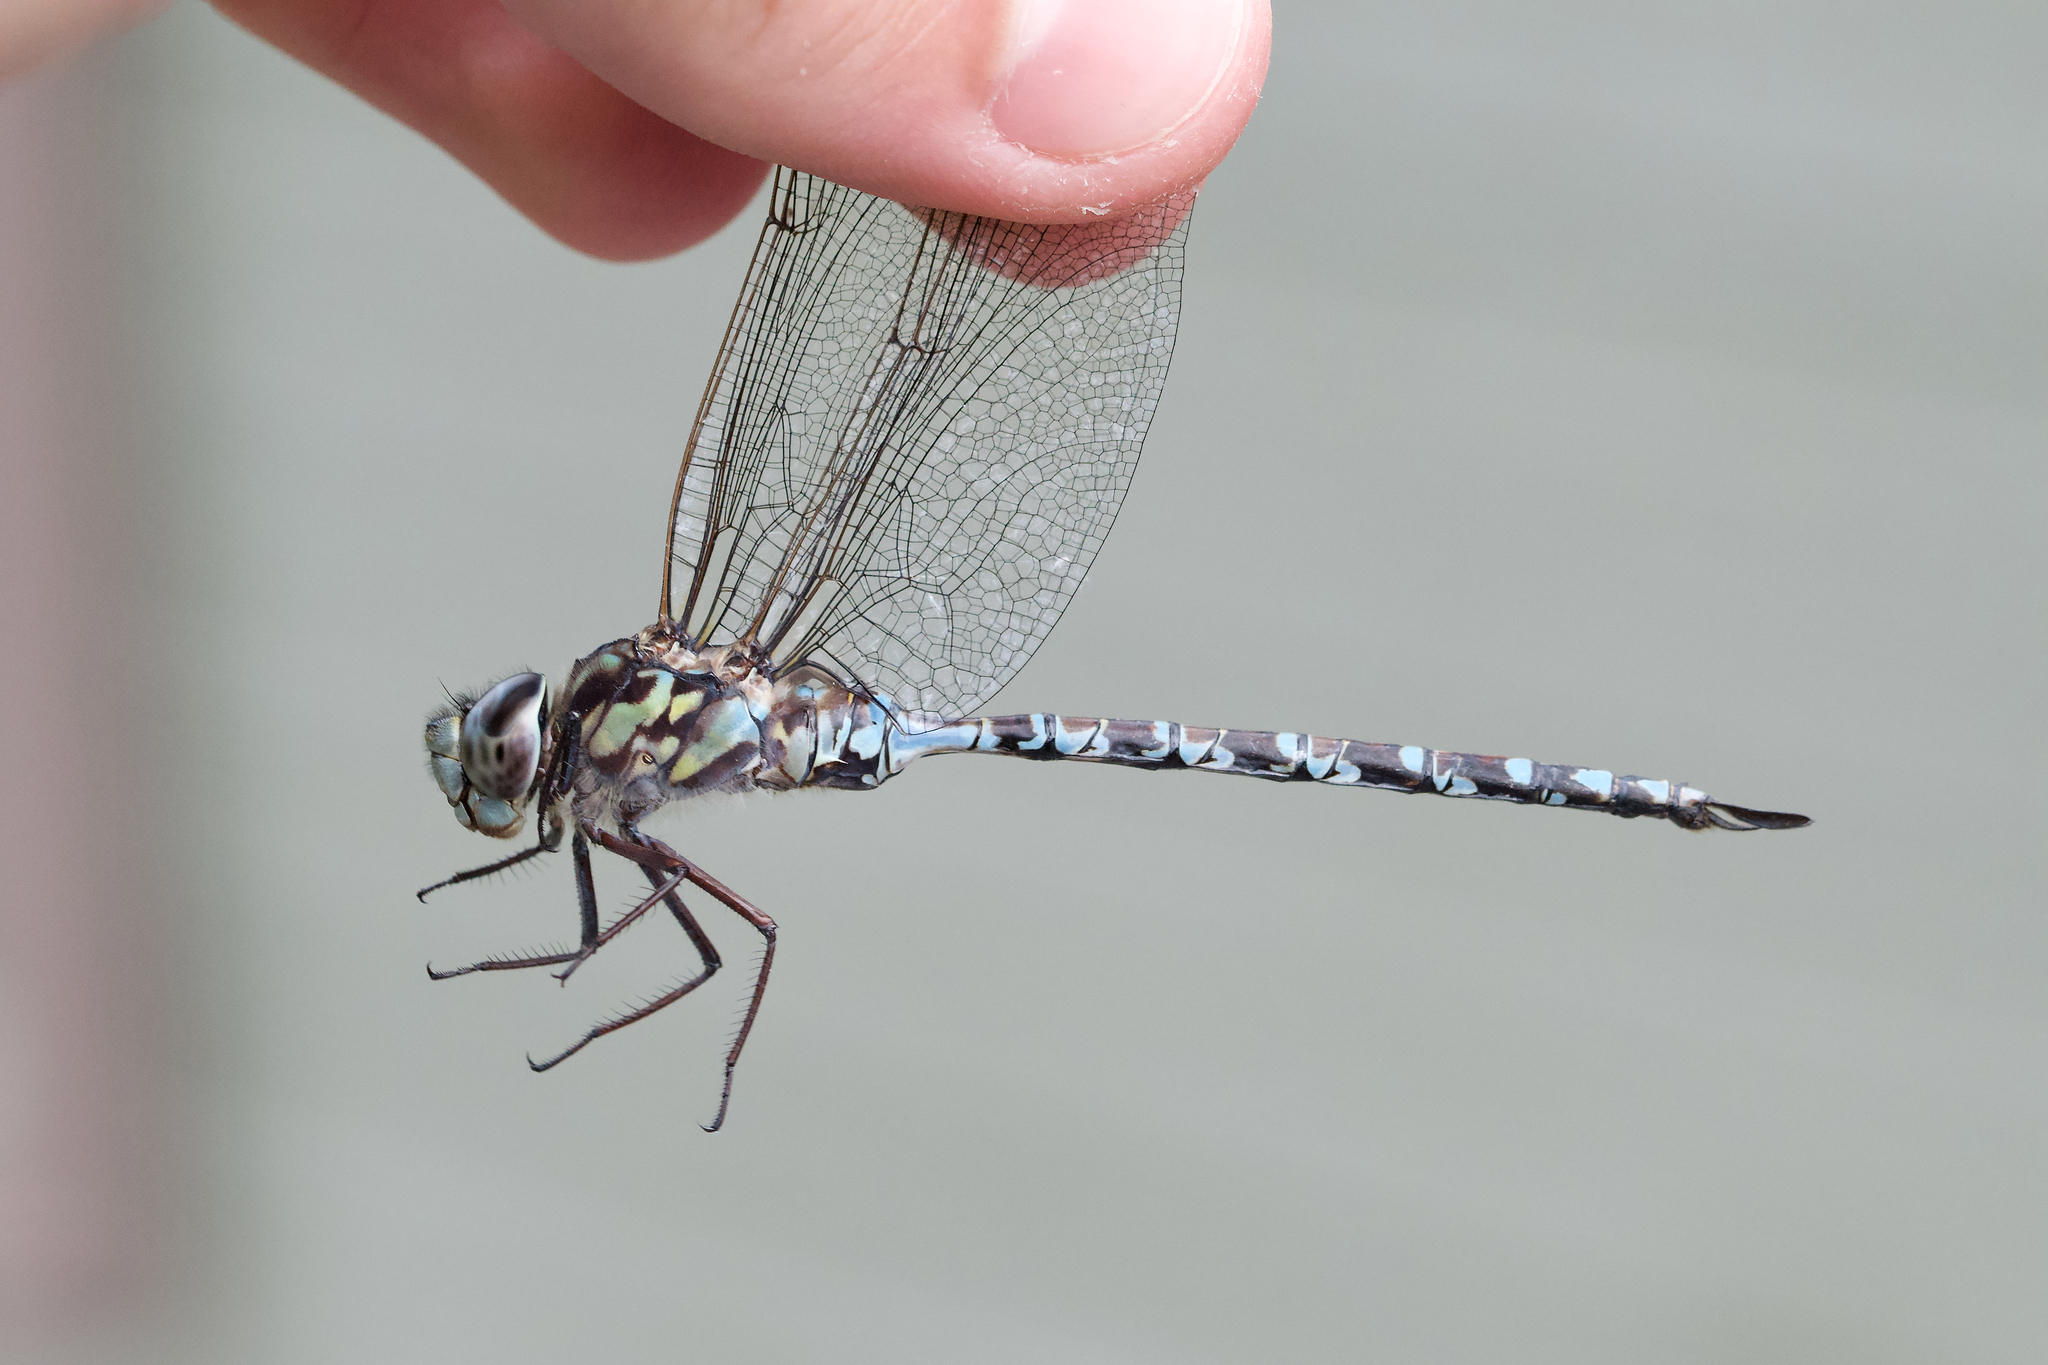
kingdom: Animalia
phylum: Arthropoda
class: Insecta
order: Odonata
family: Aeshnidae
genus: Aeshna
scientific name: Aeshna clepsydra
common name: Mottled darner
